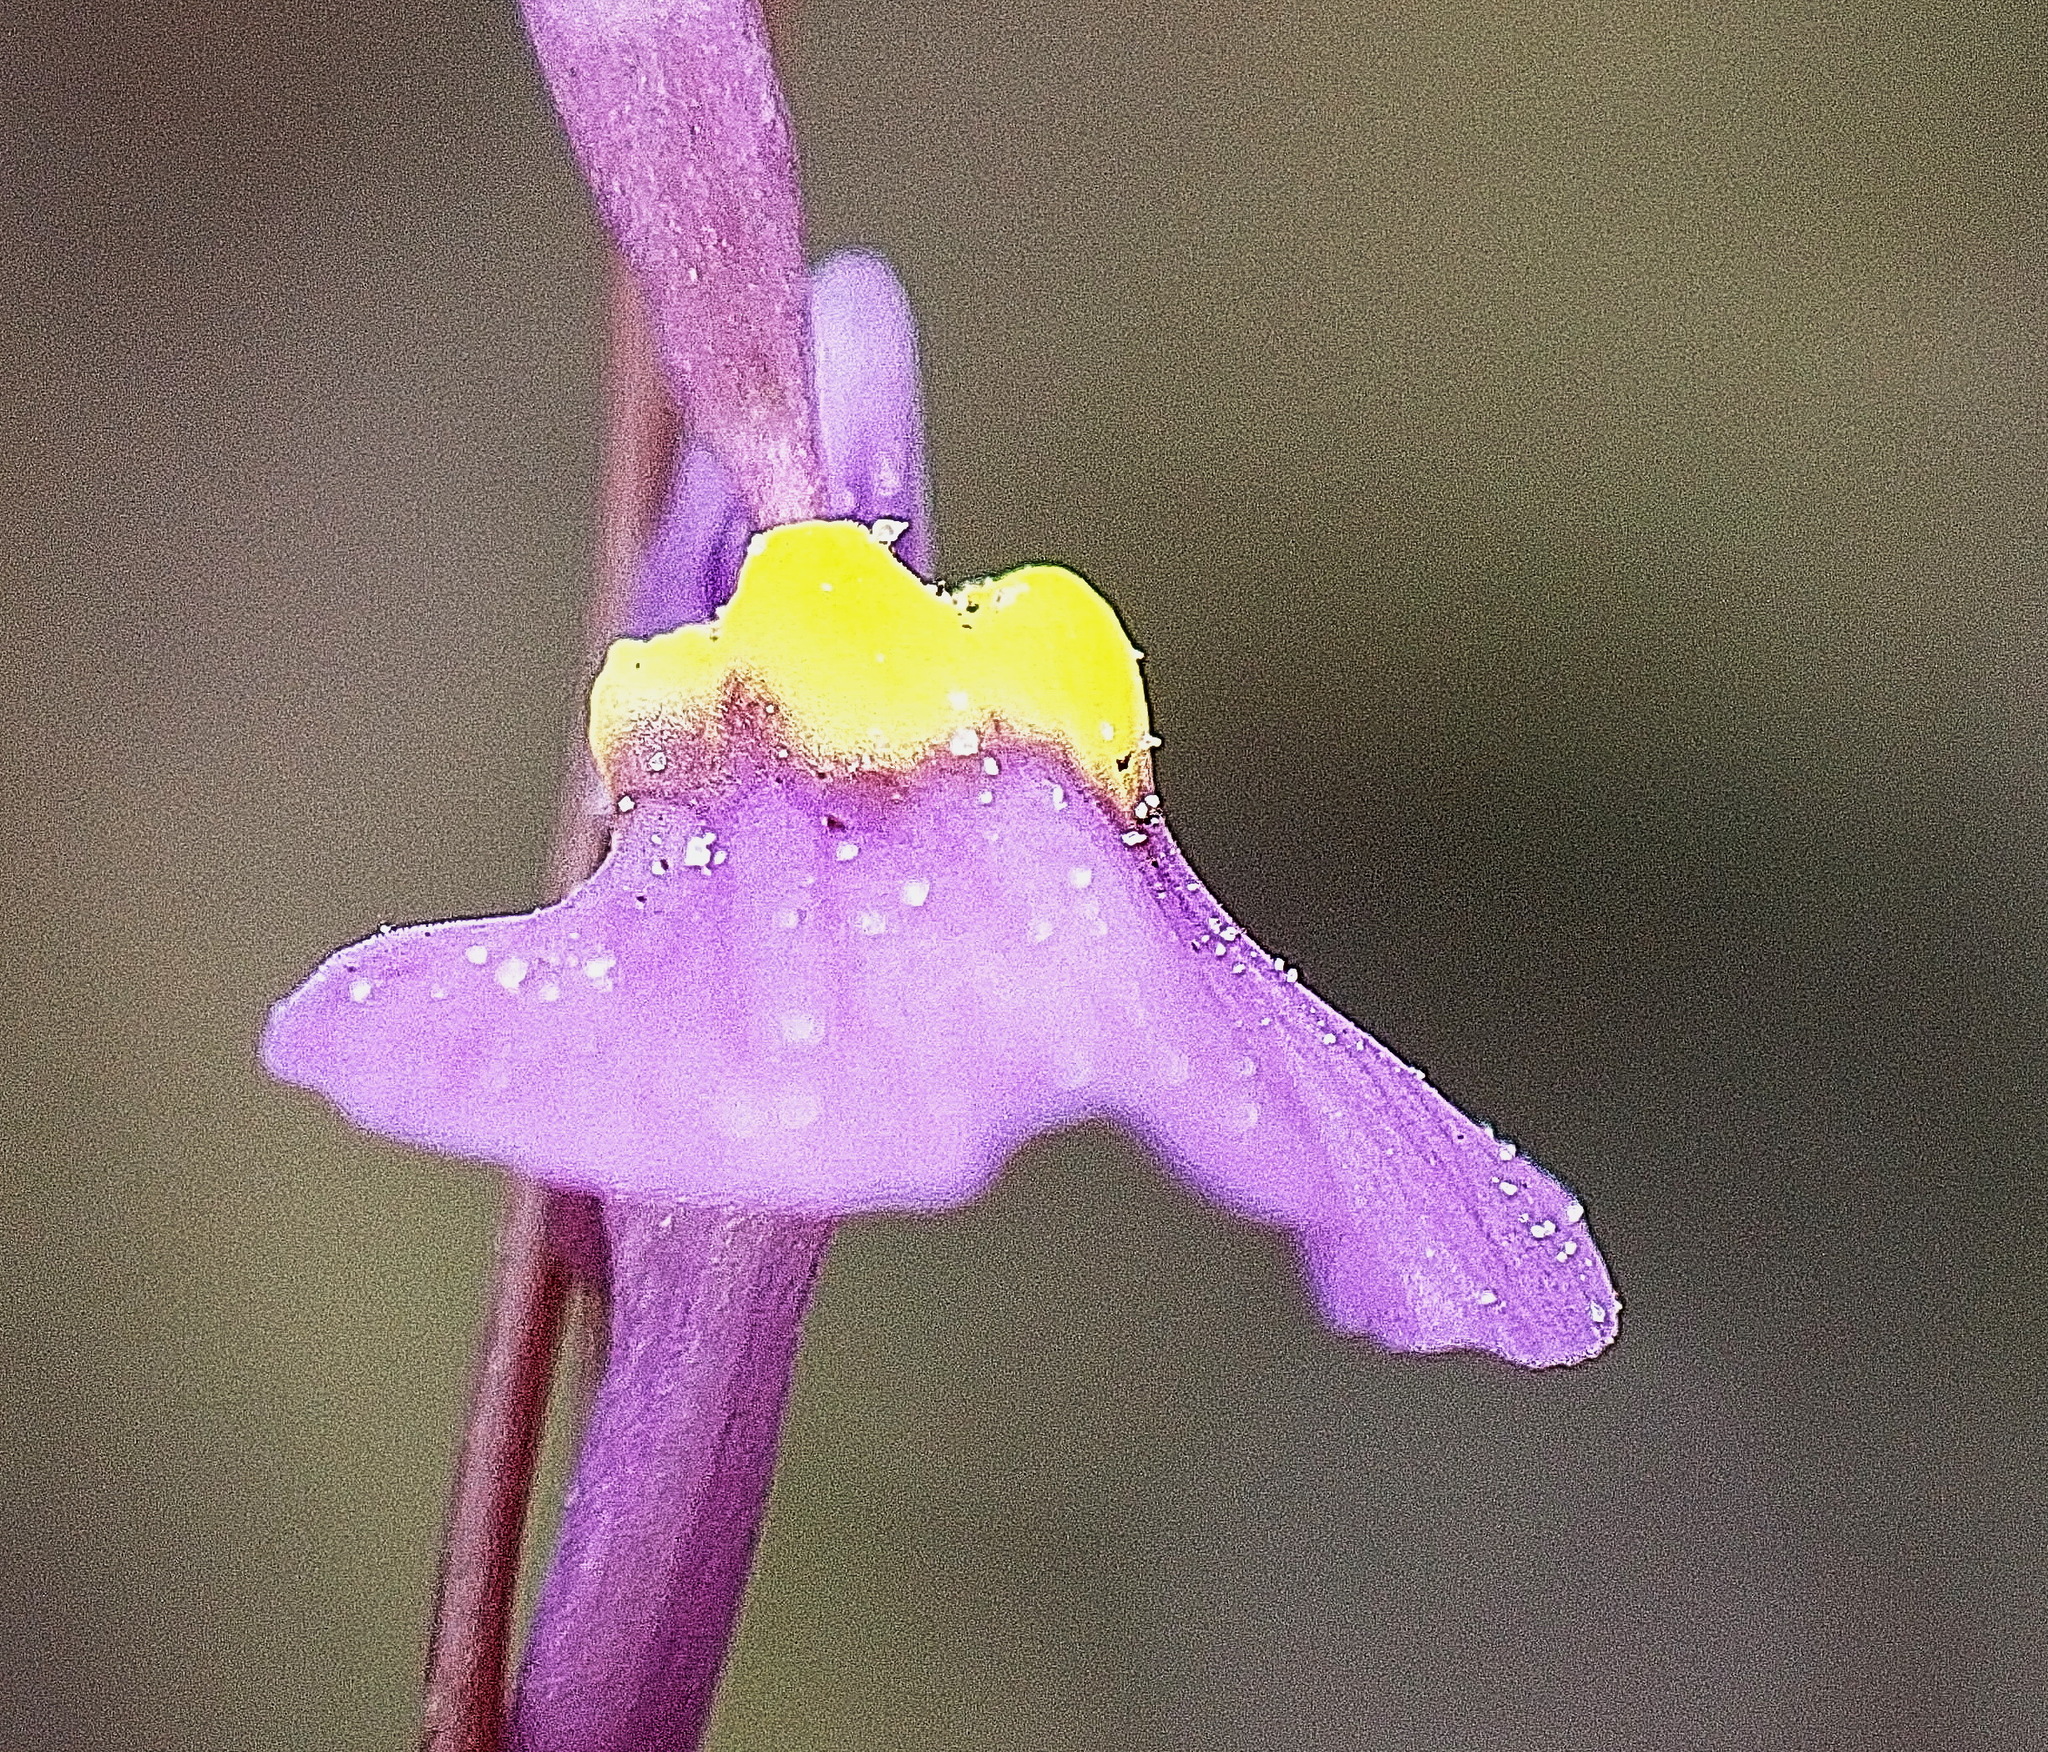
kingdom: Plantae
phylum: Tracheophyta
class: Magnoliopsida
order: Lamiales
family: Lentibulariaceae
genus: Utricularia
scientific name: Utricularia welwitschii
